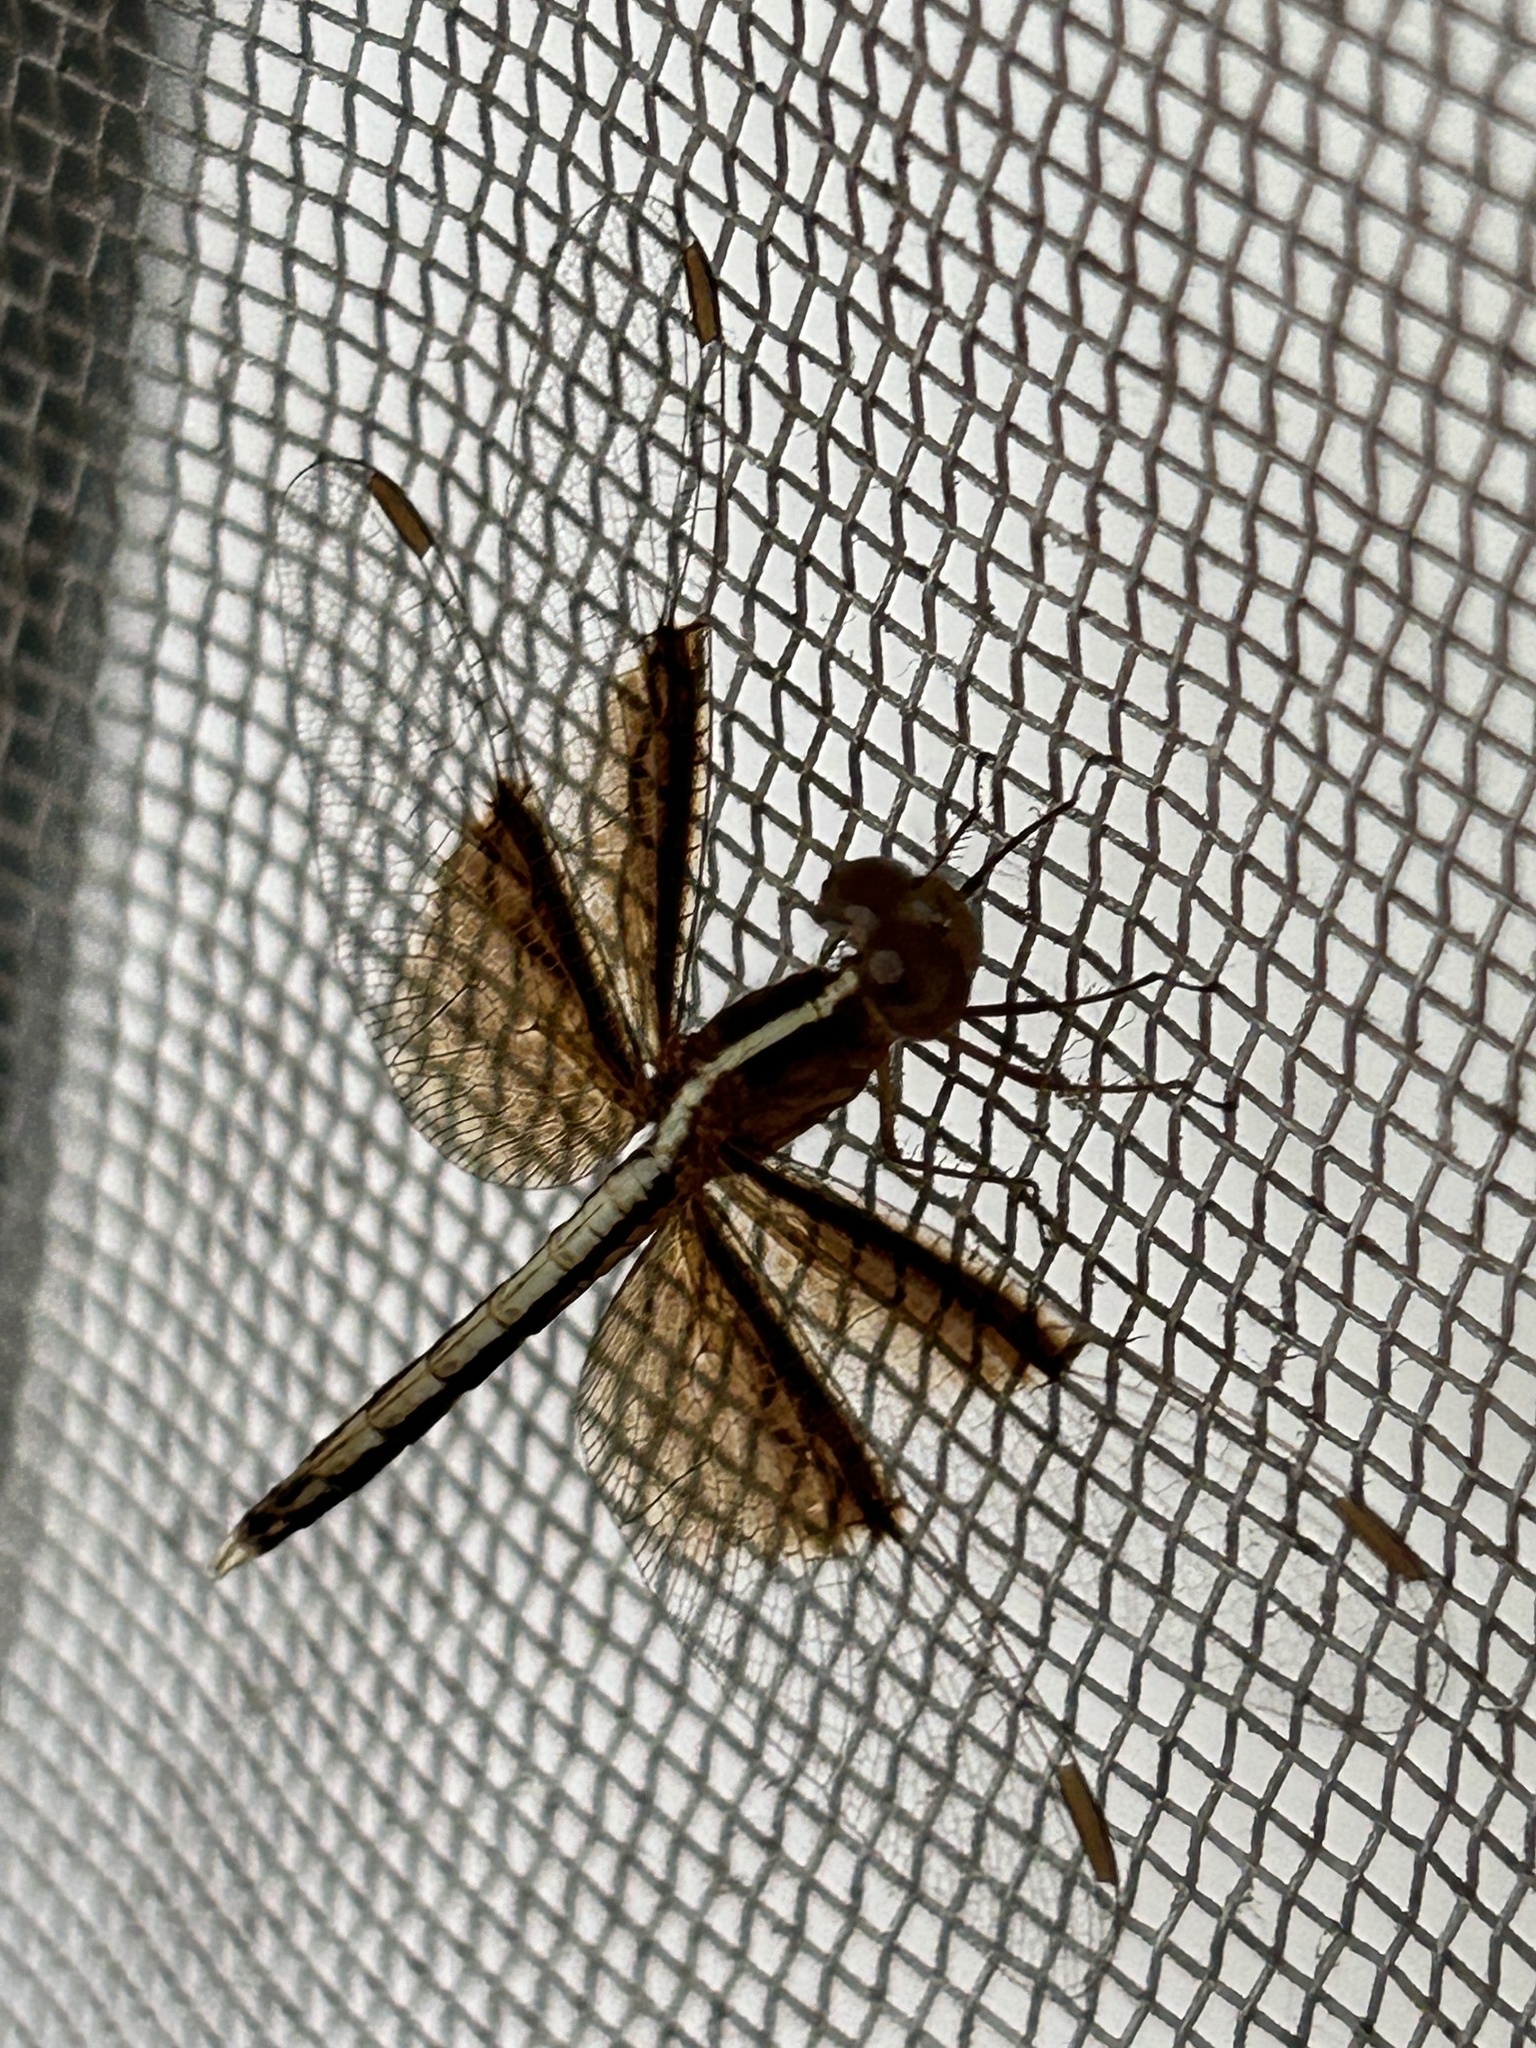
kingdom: Animalia
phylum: Arthropoda
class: Insecta
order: Odonata
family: Libellulidae
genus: Neurothemis
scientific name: Neurothemis tullia
